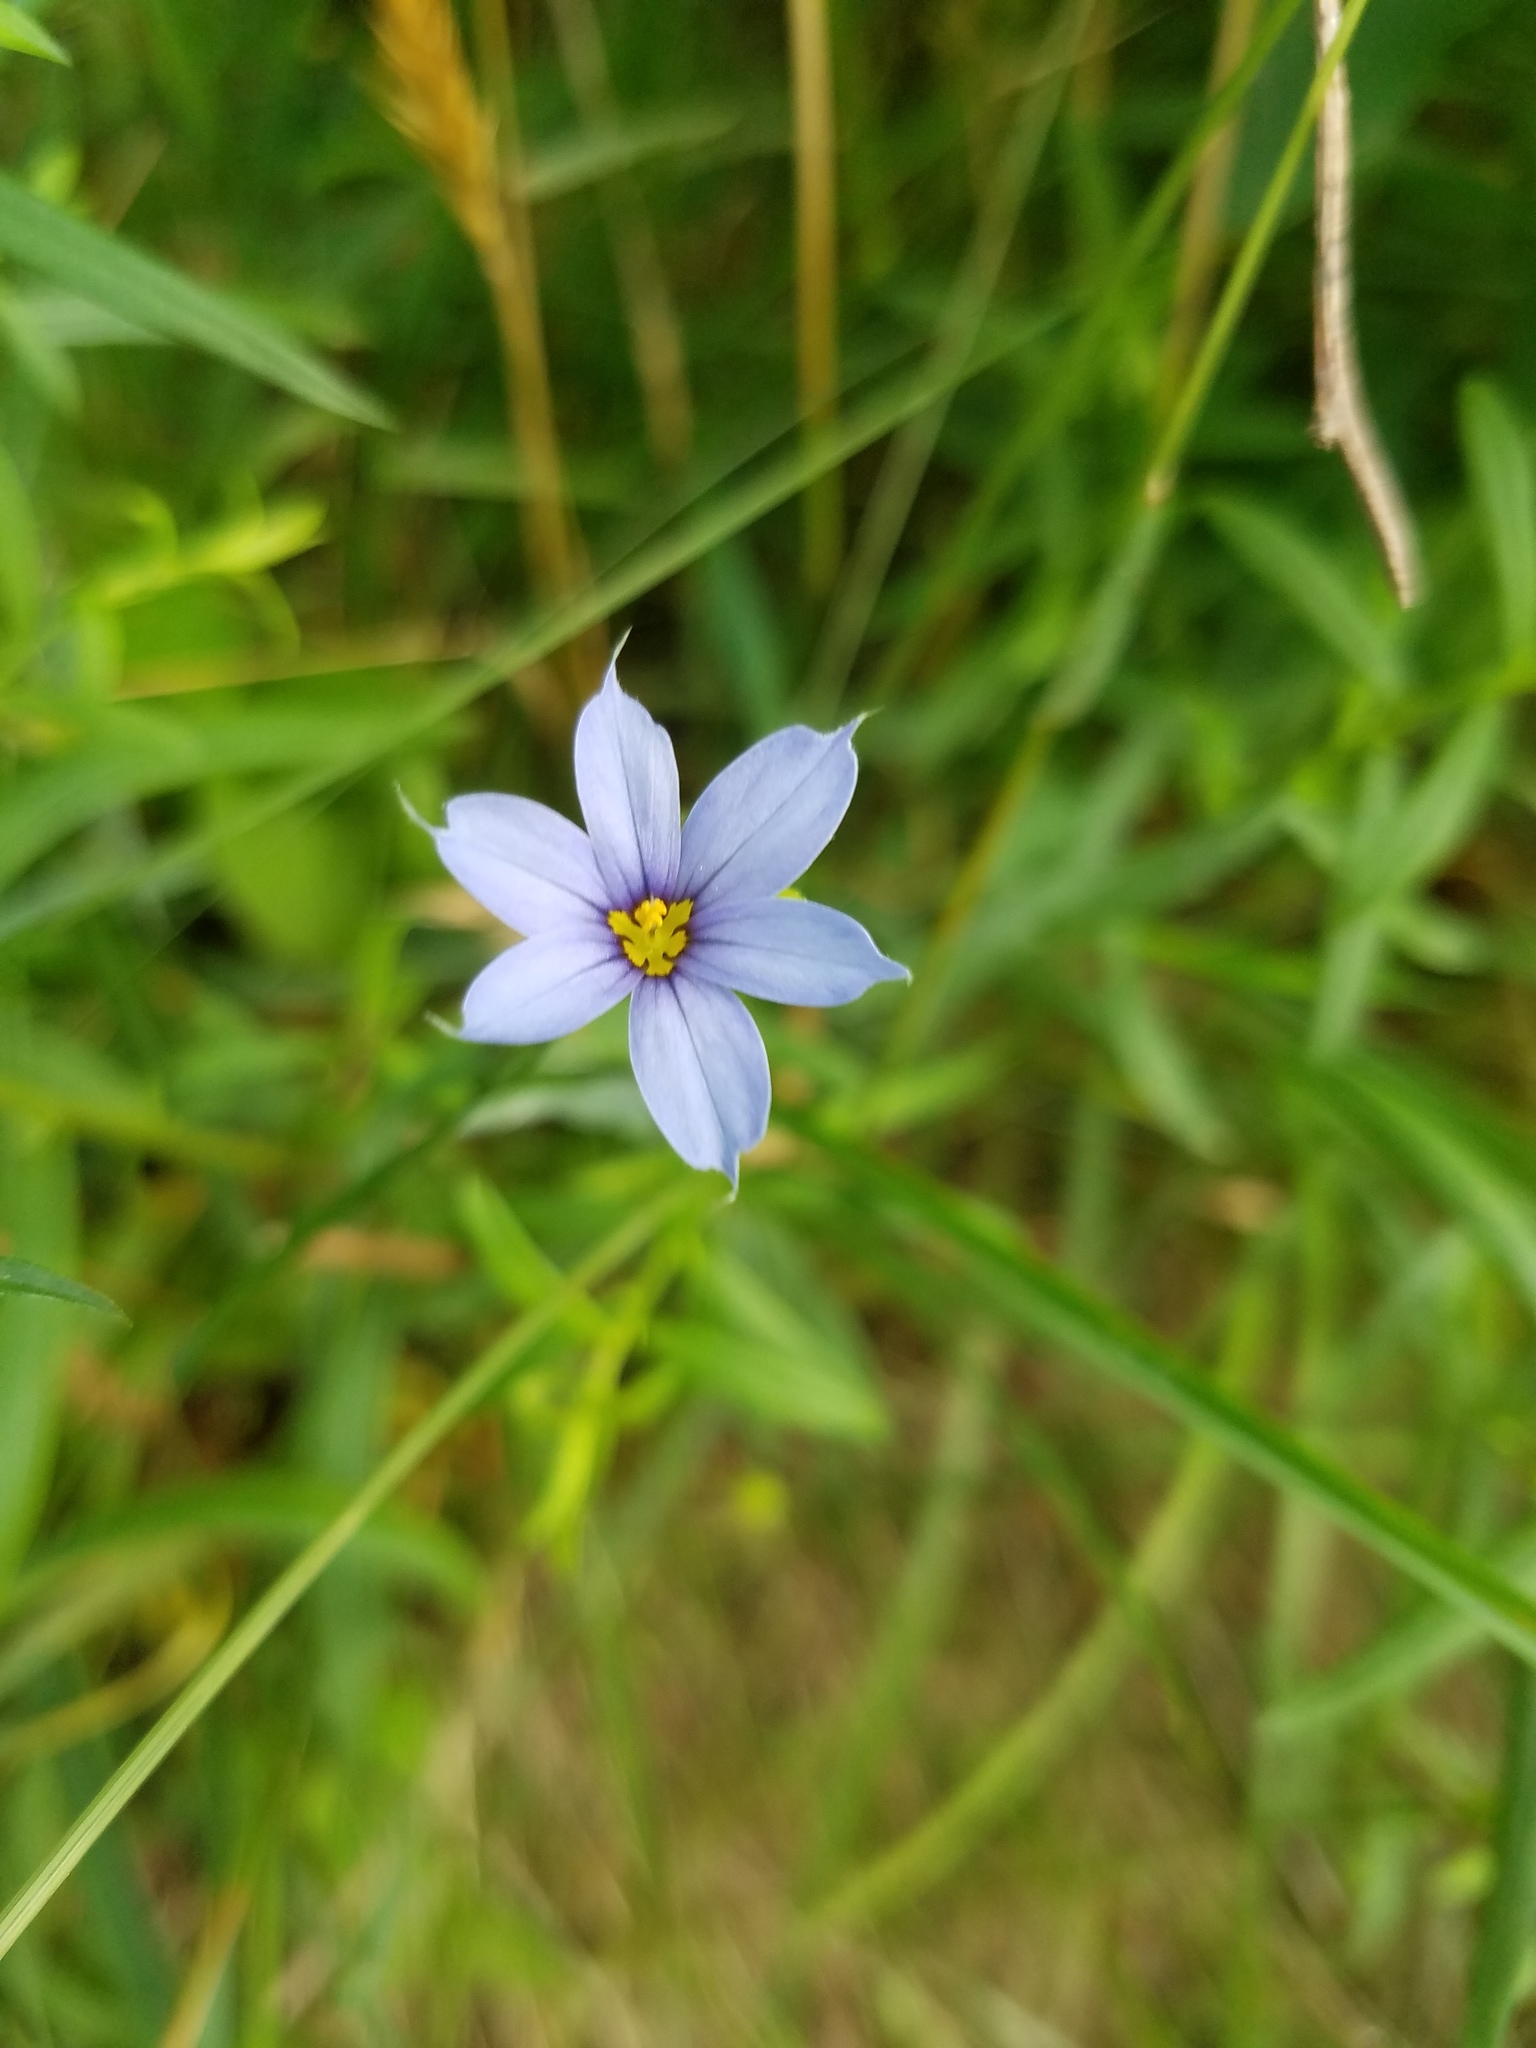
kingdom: Plantae
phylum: Tracheophyta
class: Liliopsida
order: Asparagales
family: Iridaceae
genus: Sisyrinchium
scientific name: Sisyrinchium angustifolium
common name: Narrow-leaf blue-eyed-grass
